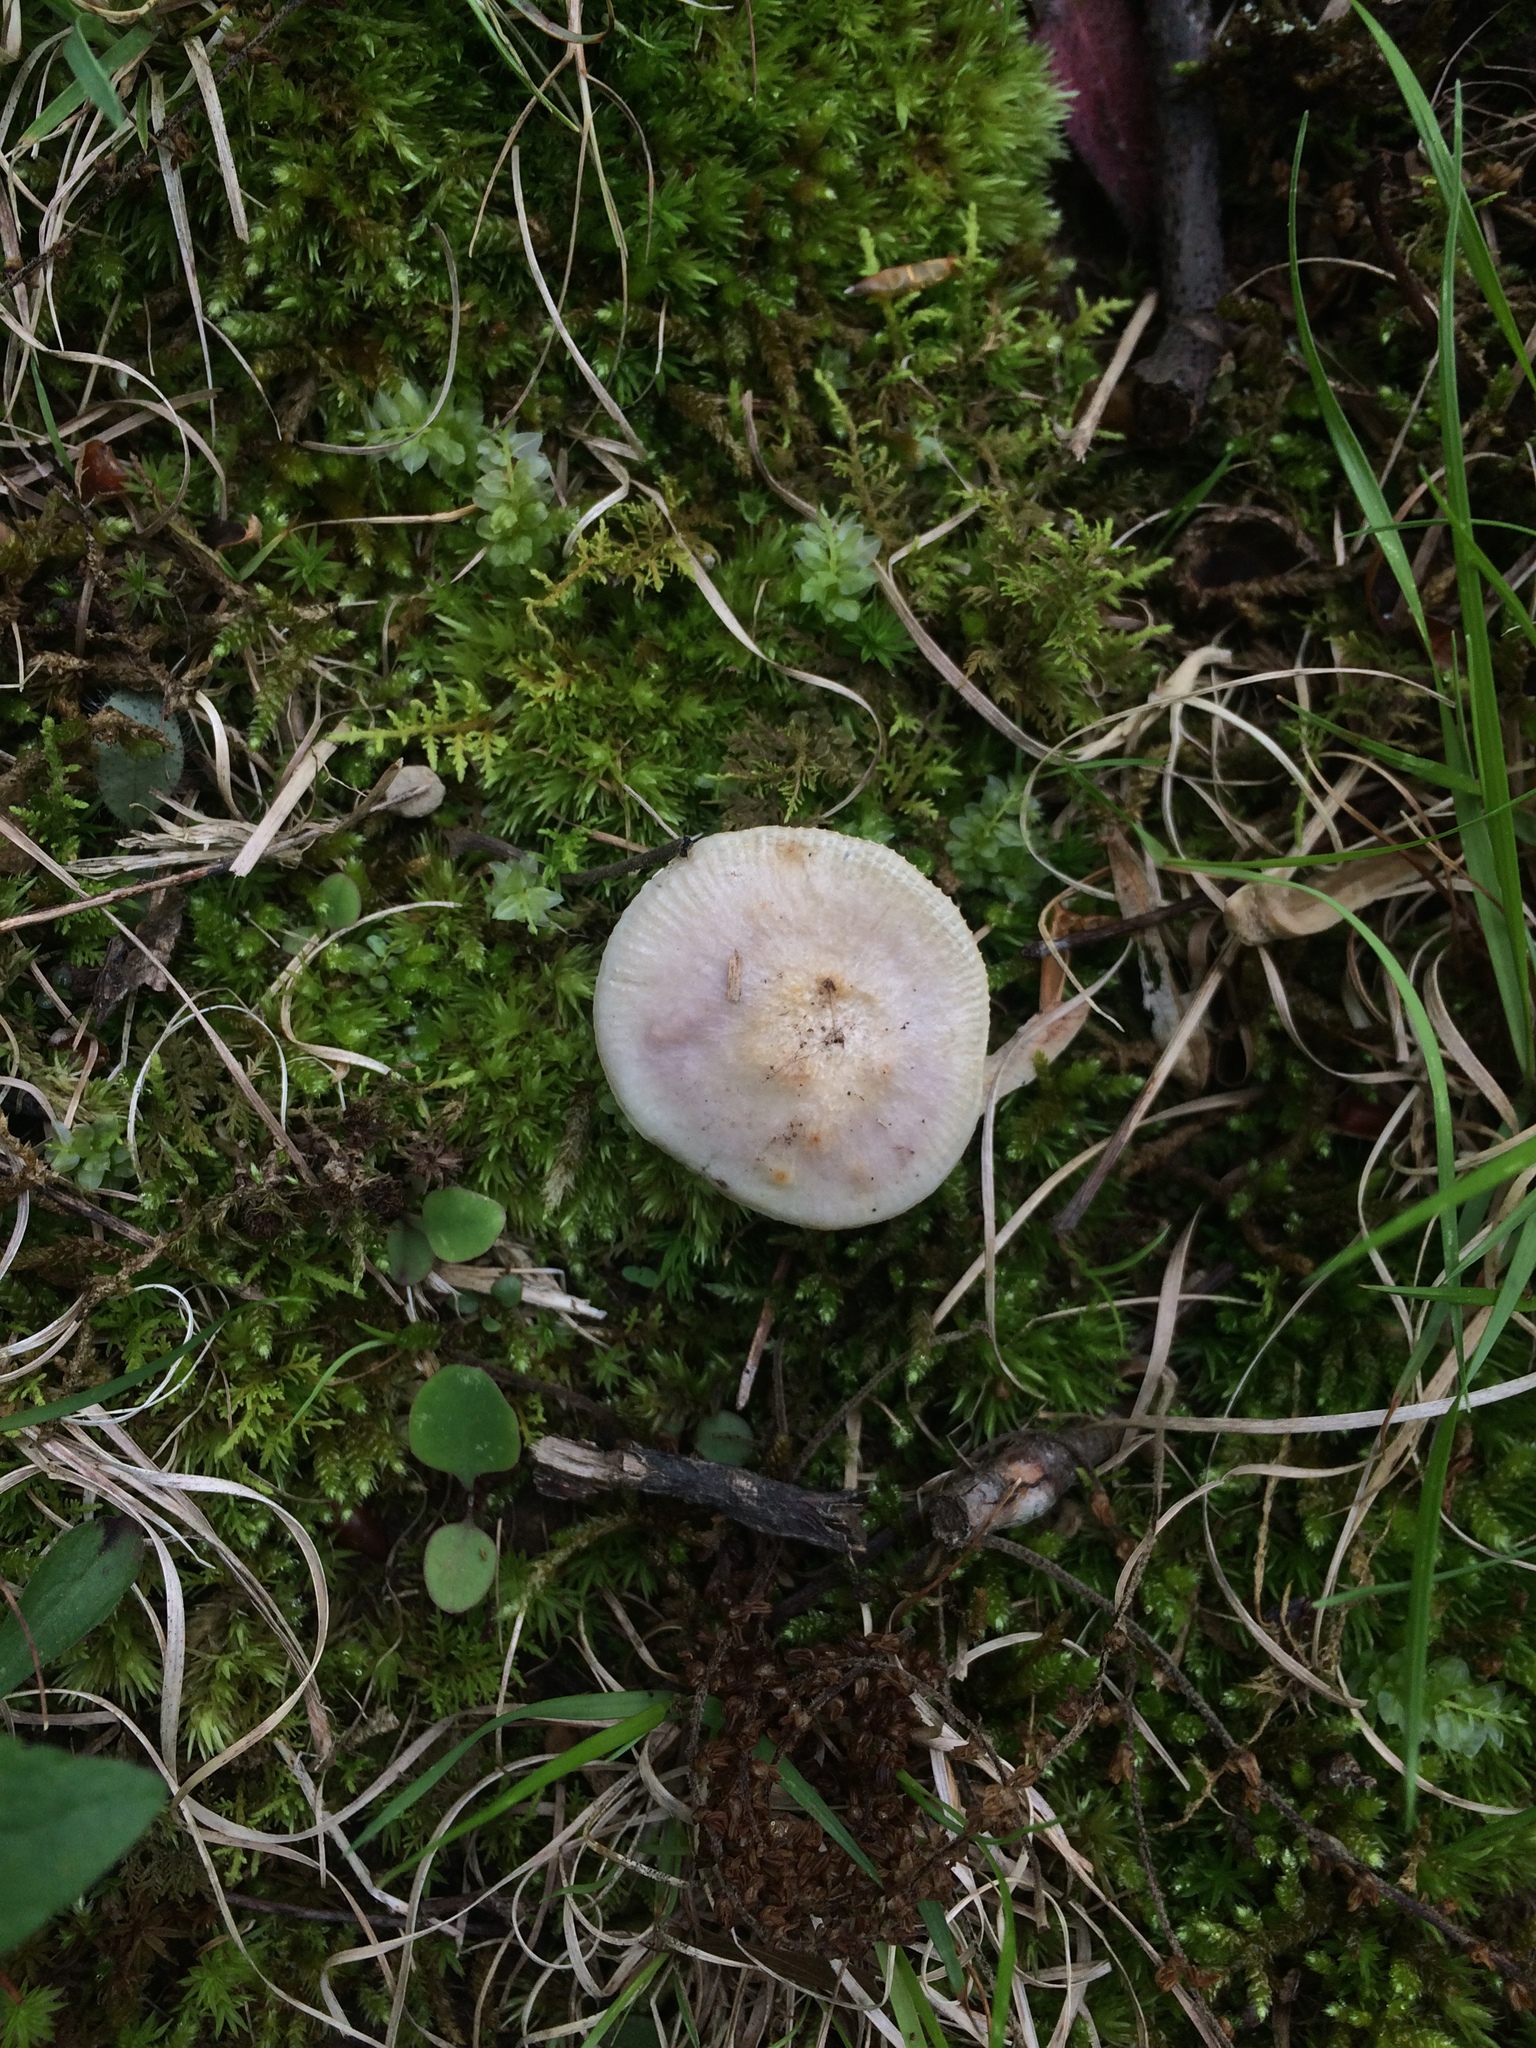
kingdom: Fungi
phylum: Basidiomycota
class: Agaricomycetes
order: Russulales
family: Russulaceae
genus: Russula
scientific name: Russula vinacea
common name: Blackish-red russula
